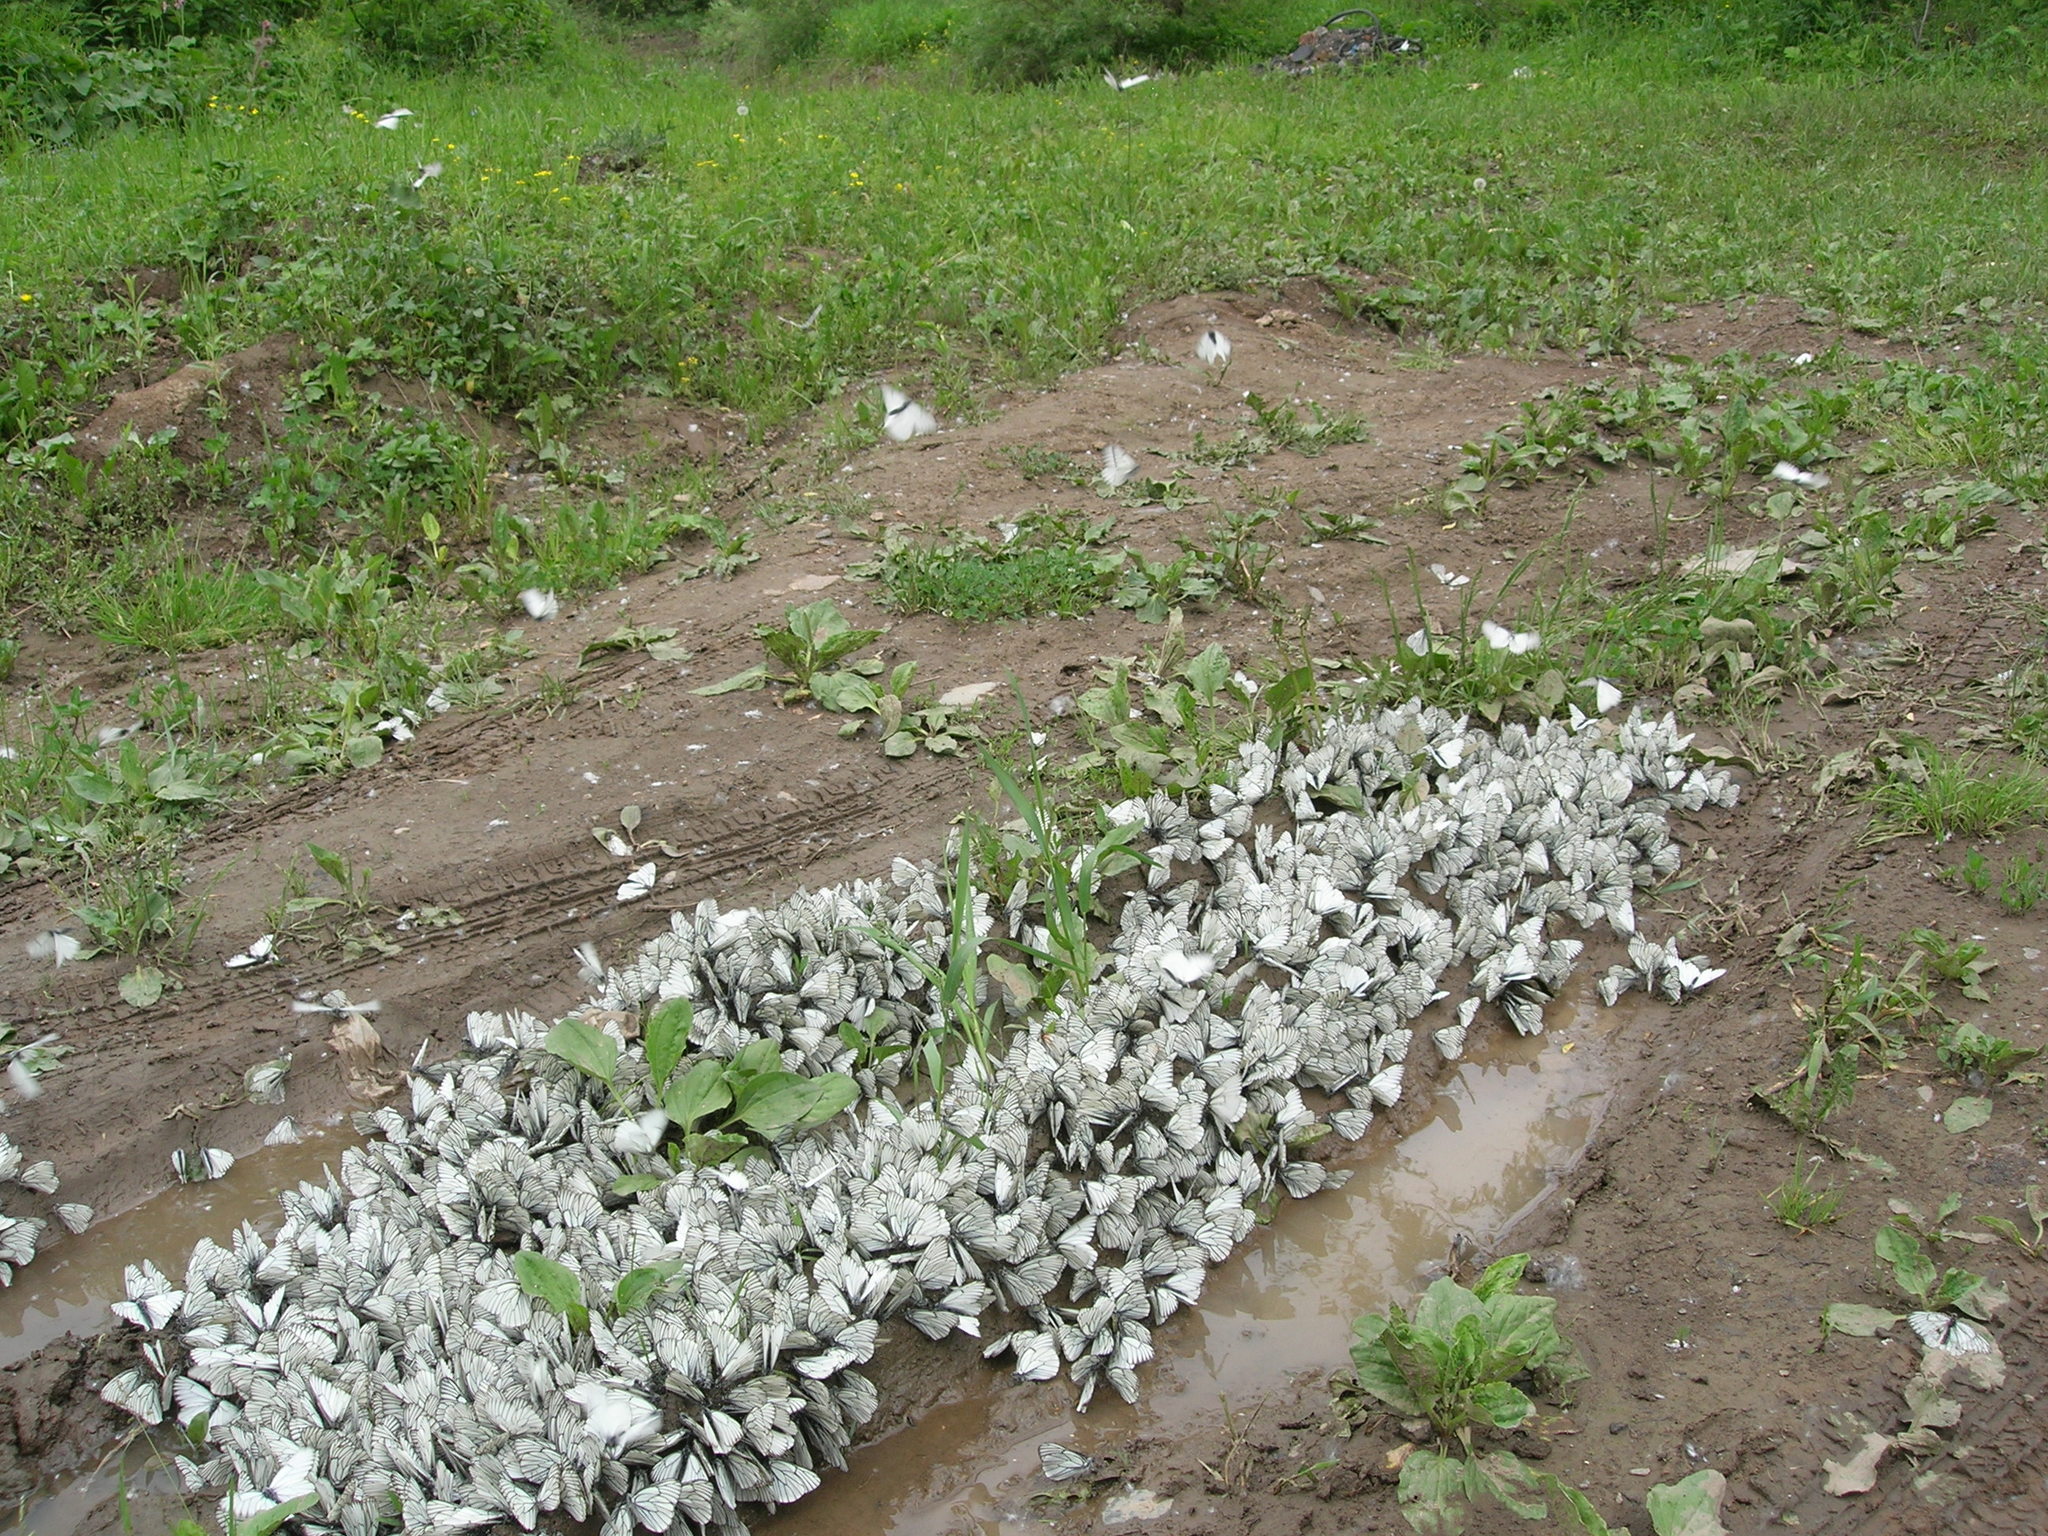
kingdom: Animalia
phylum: Arthropoda
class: Insecta
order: Lepidoptera
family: Pieridae
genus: Aporia
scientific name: Aporia crataegi
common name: Black-veined white
